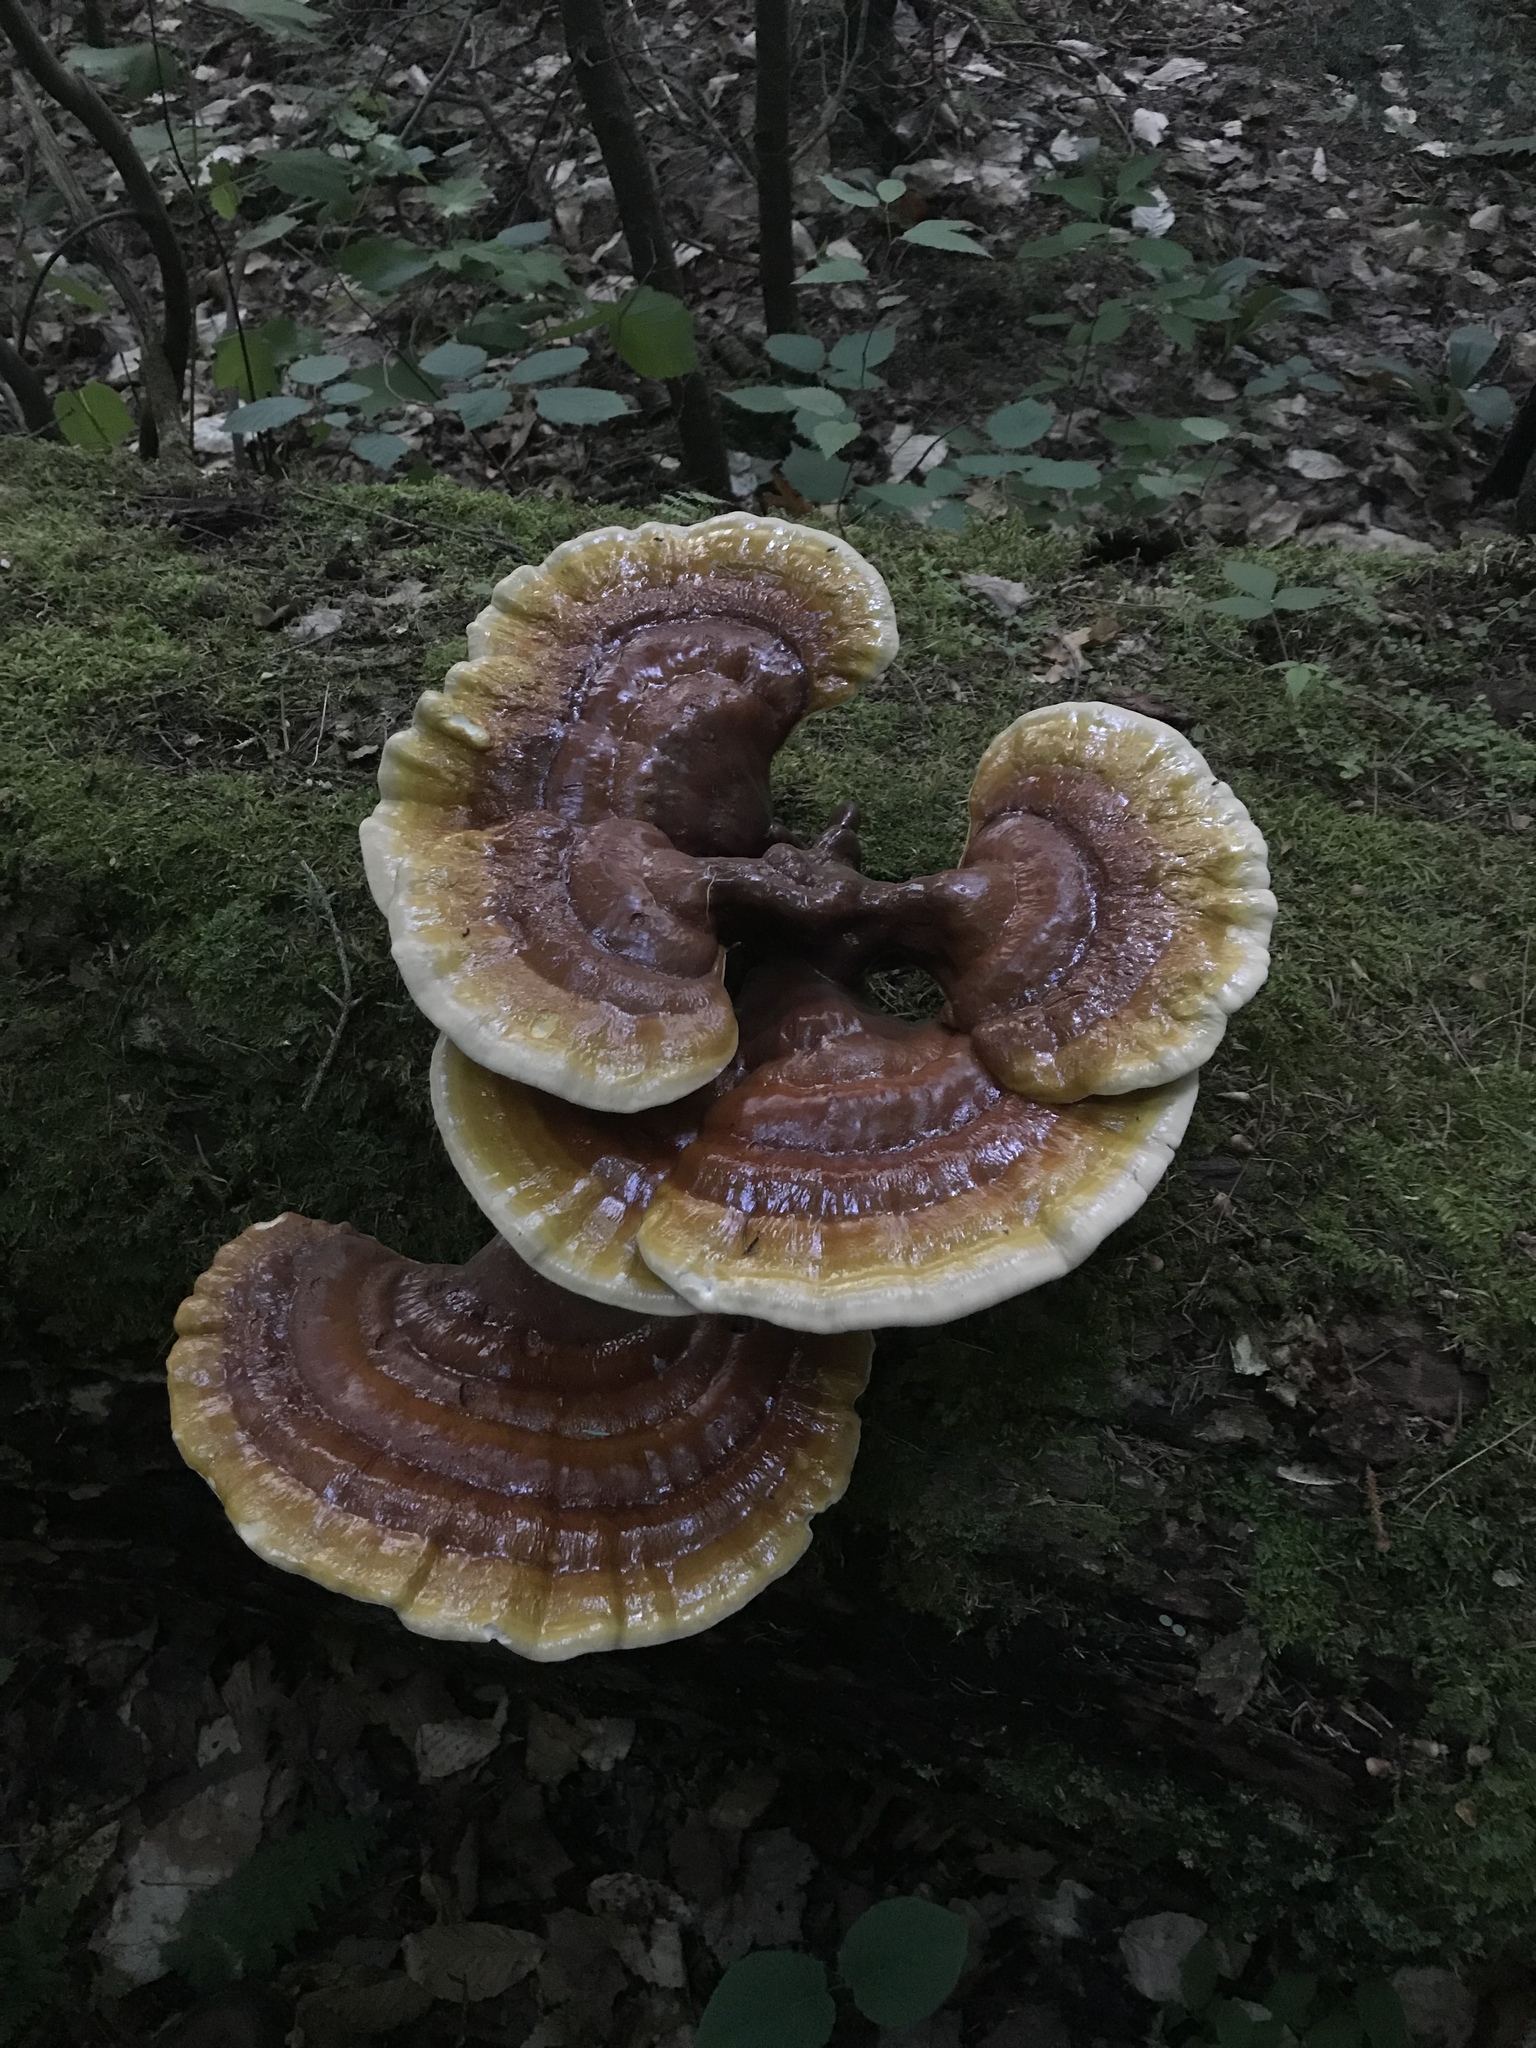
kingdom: Fungi
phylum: Basidiomycota
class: Agaricomycetes
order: Polyporales
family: Polyporaceae
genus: Ganoderma
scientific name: Ganoderma tsugae
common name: Hemlock varnish shelf
